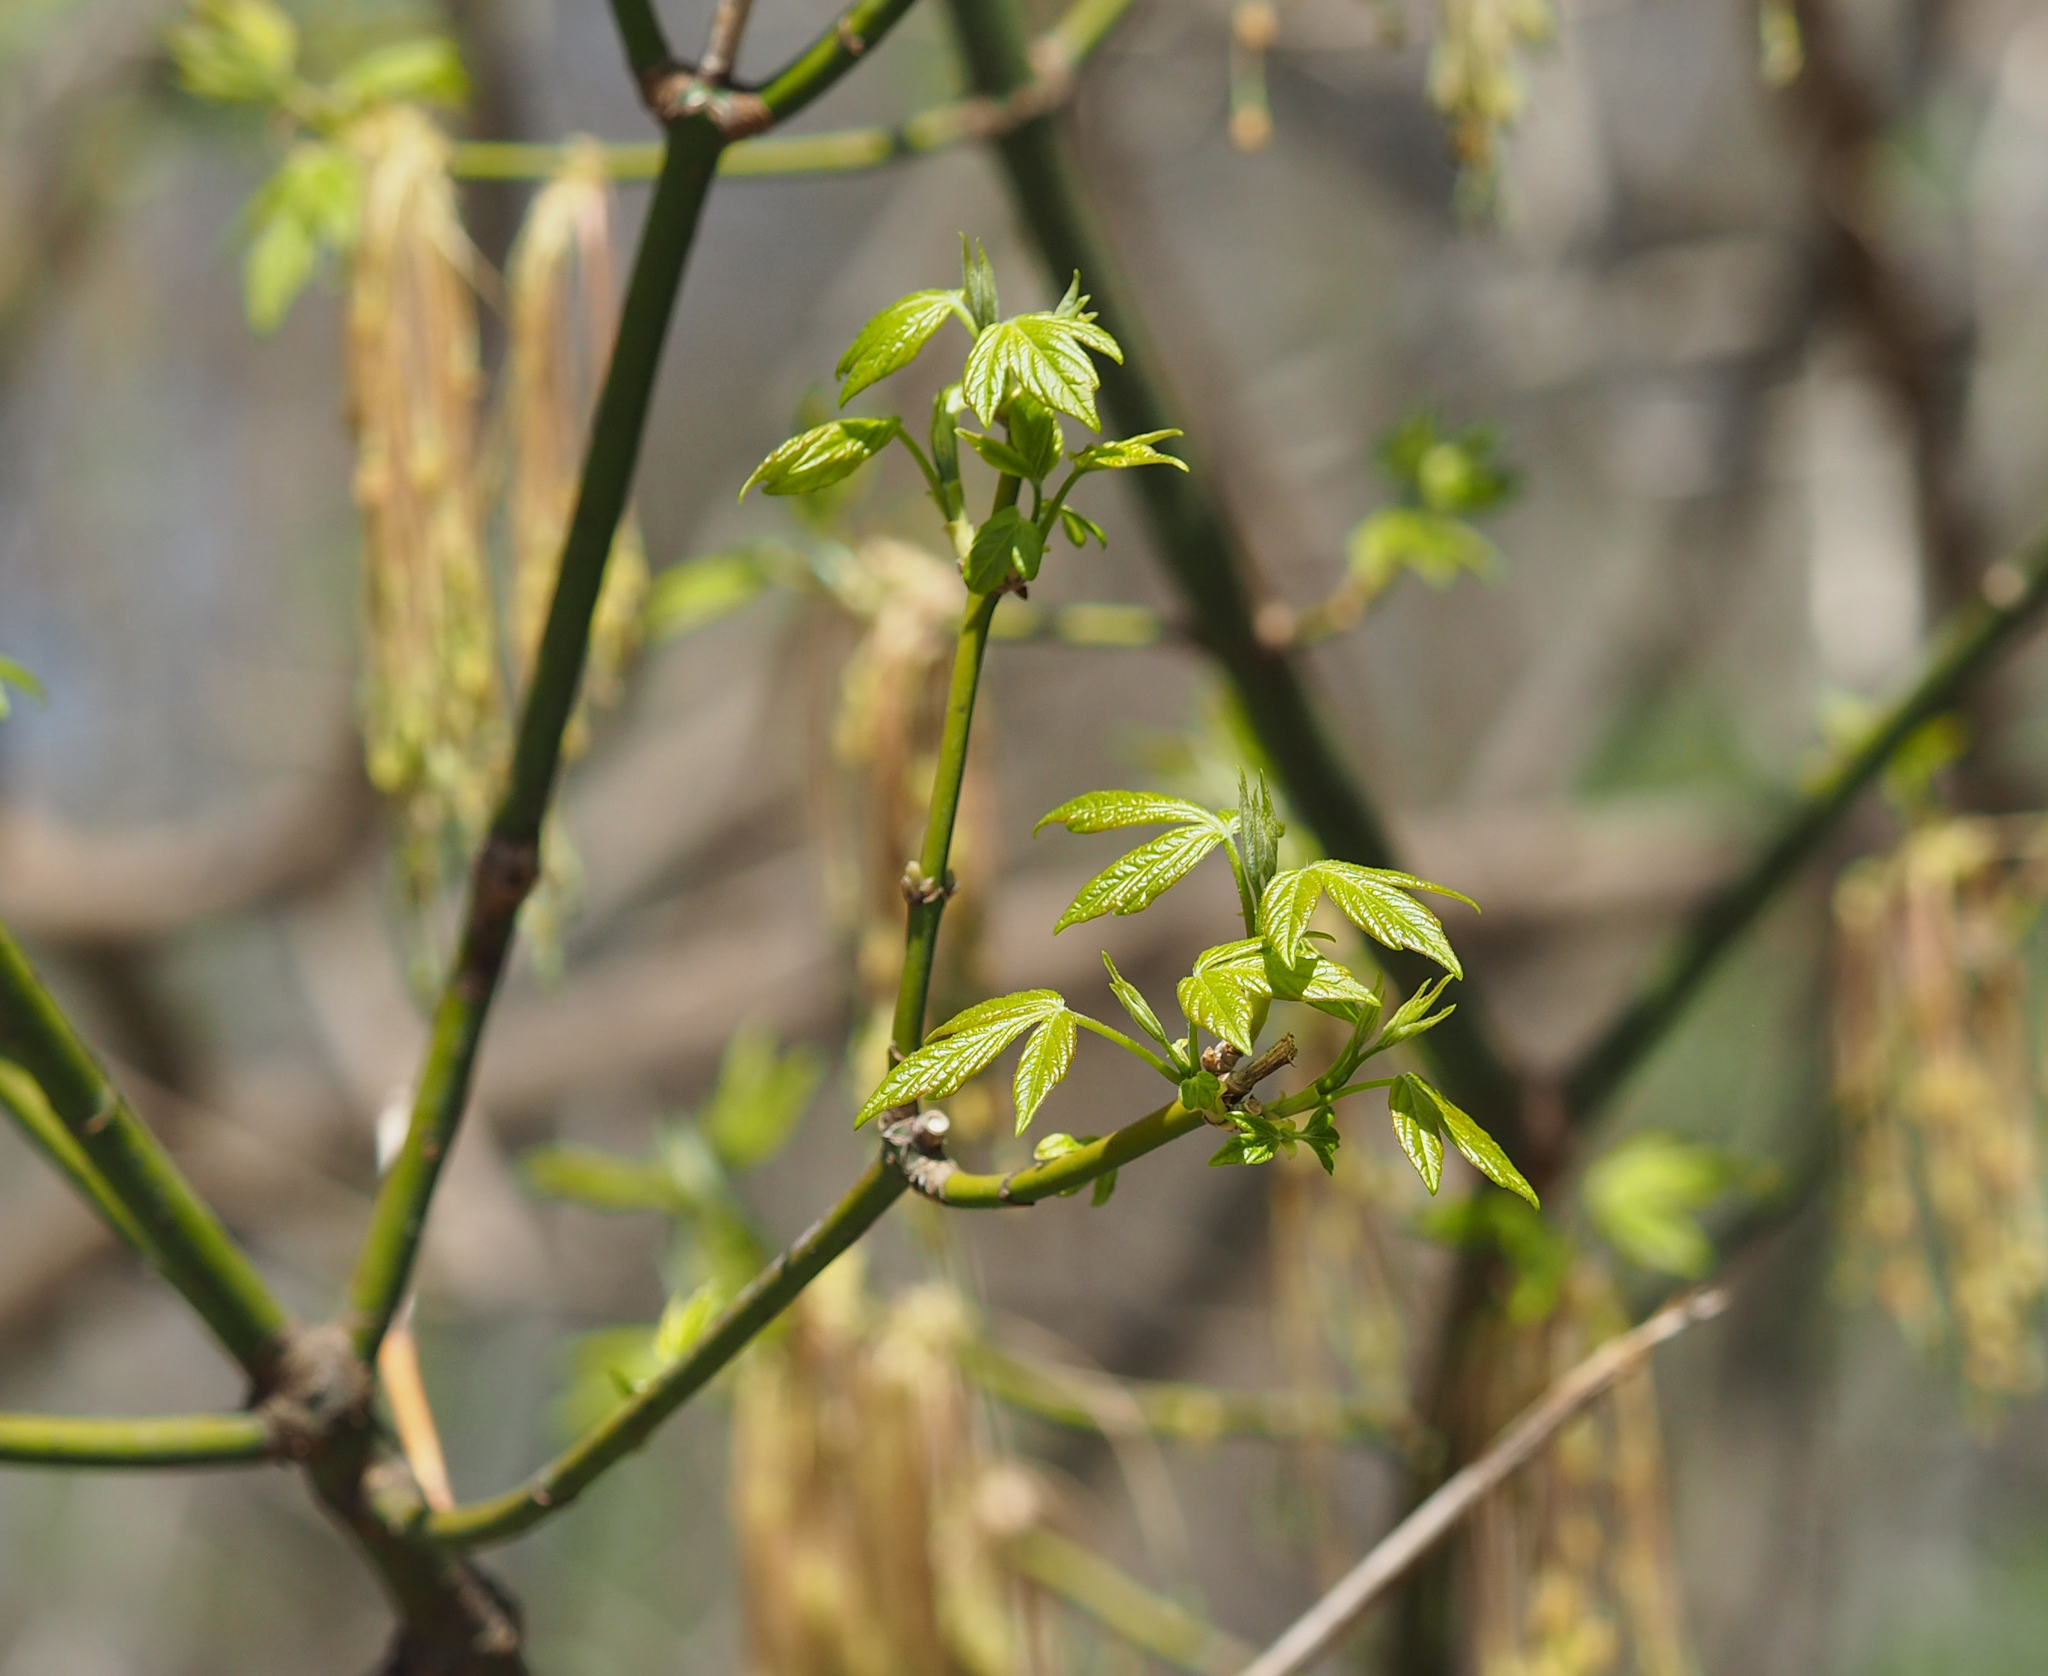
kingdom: Plantae
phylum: Tracheophyta
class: Magnoliopsida
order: Sapindales
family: Sapindaceae
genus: Acer
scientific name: Acer negundo
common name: Ashleaf maple
